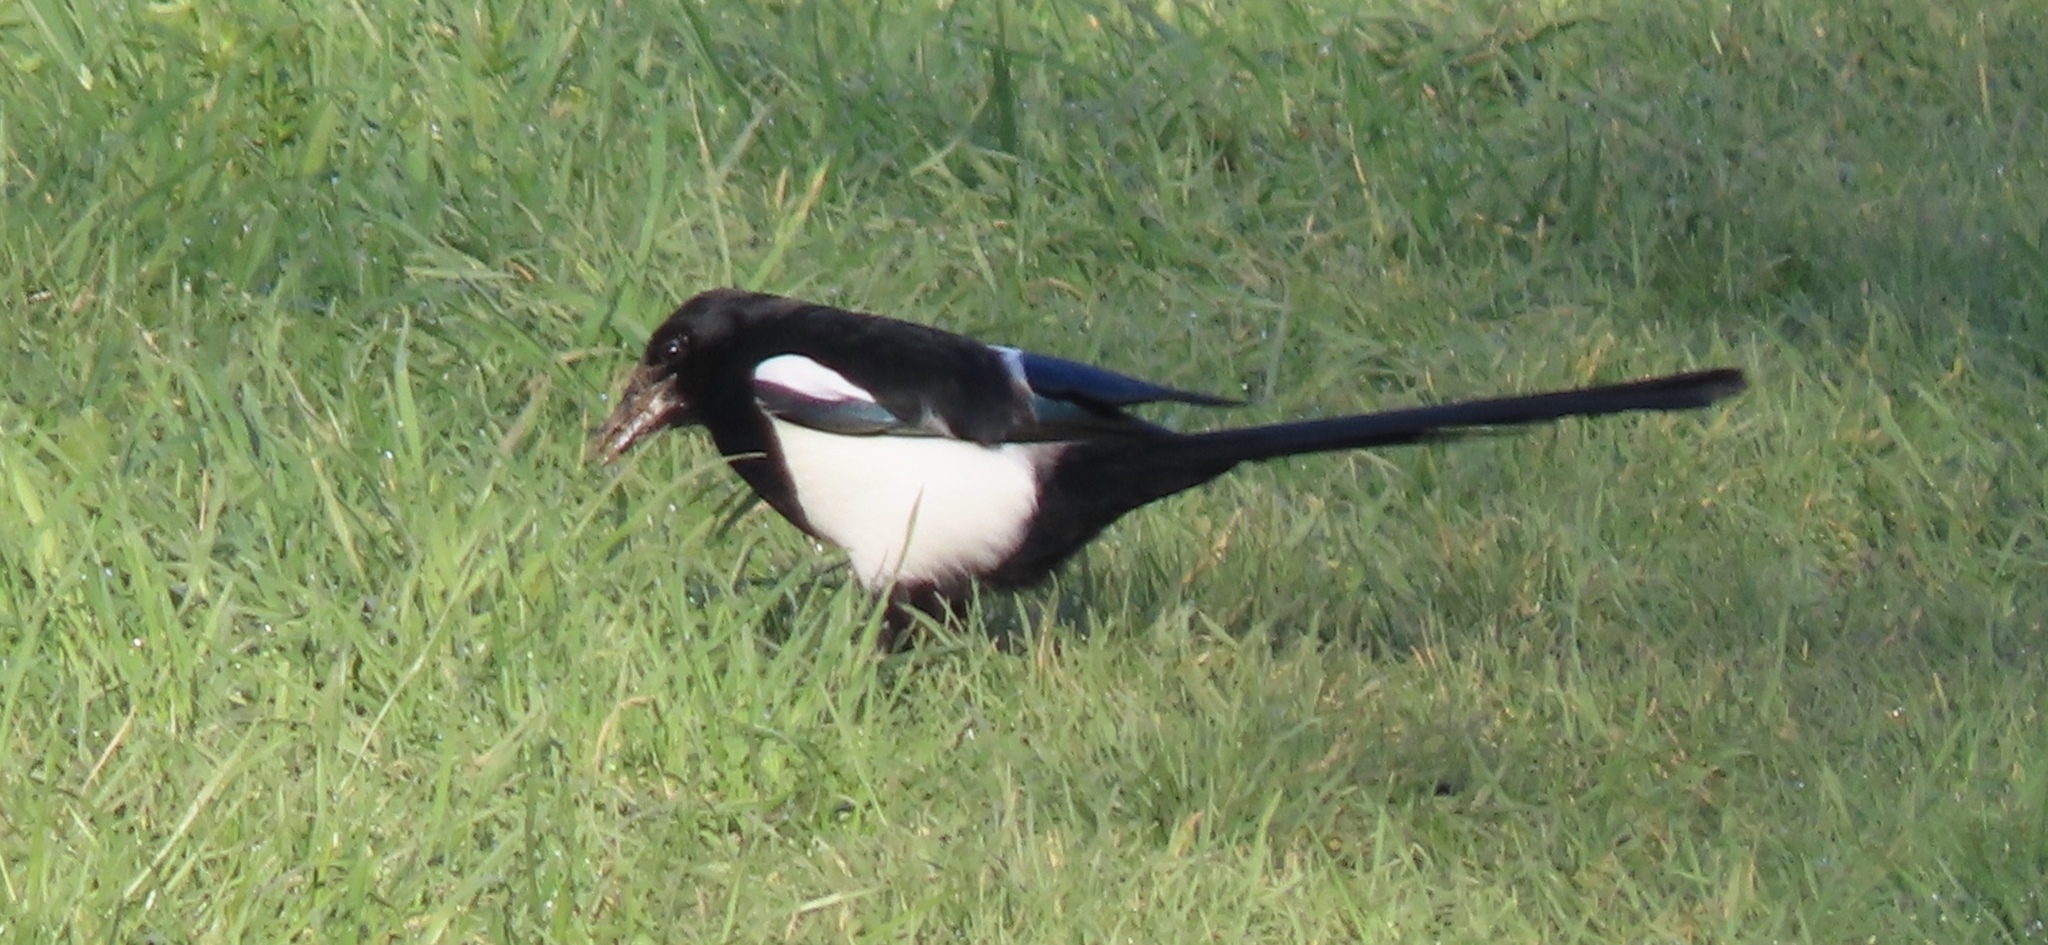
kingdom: Animalia
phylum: Chordata
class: Aves
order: Passeriformes
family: Corvidae
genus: Pica
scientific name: Pica pica
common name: Eurasian magpie
